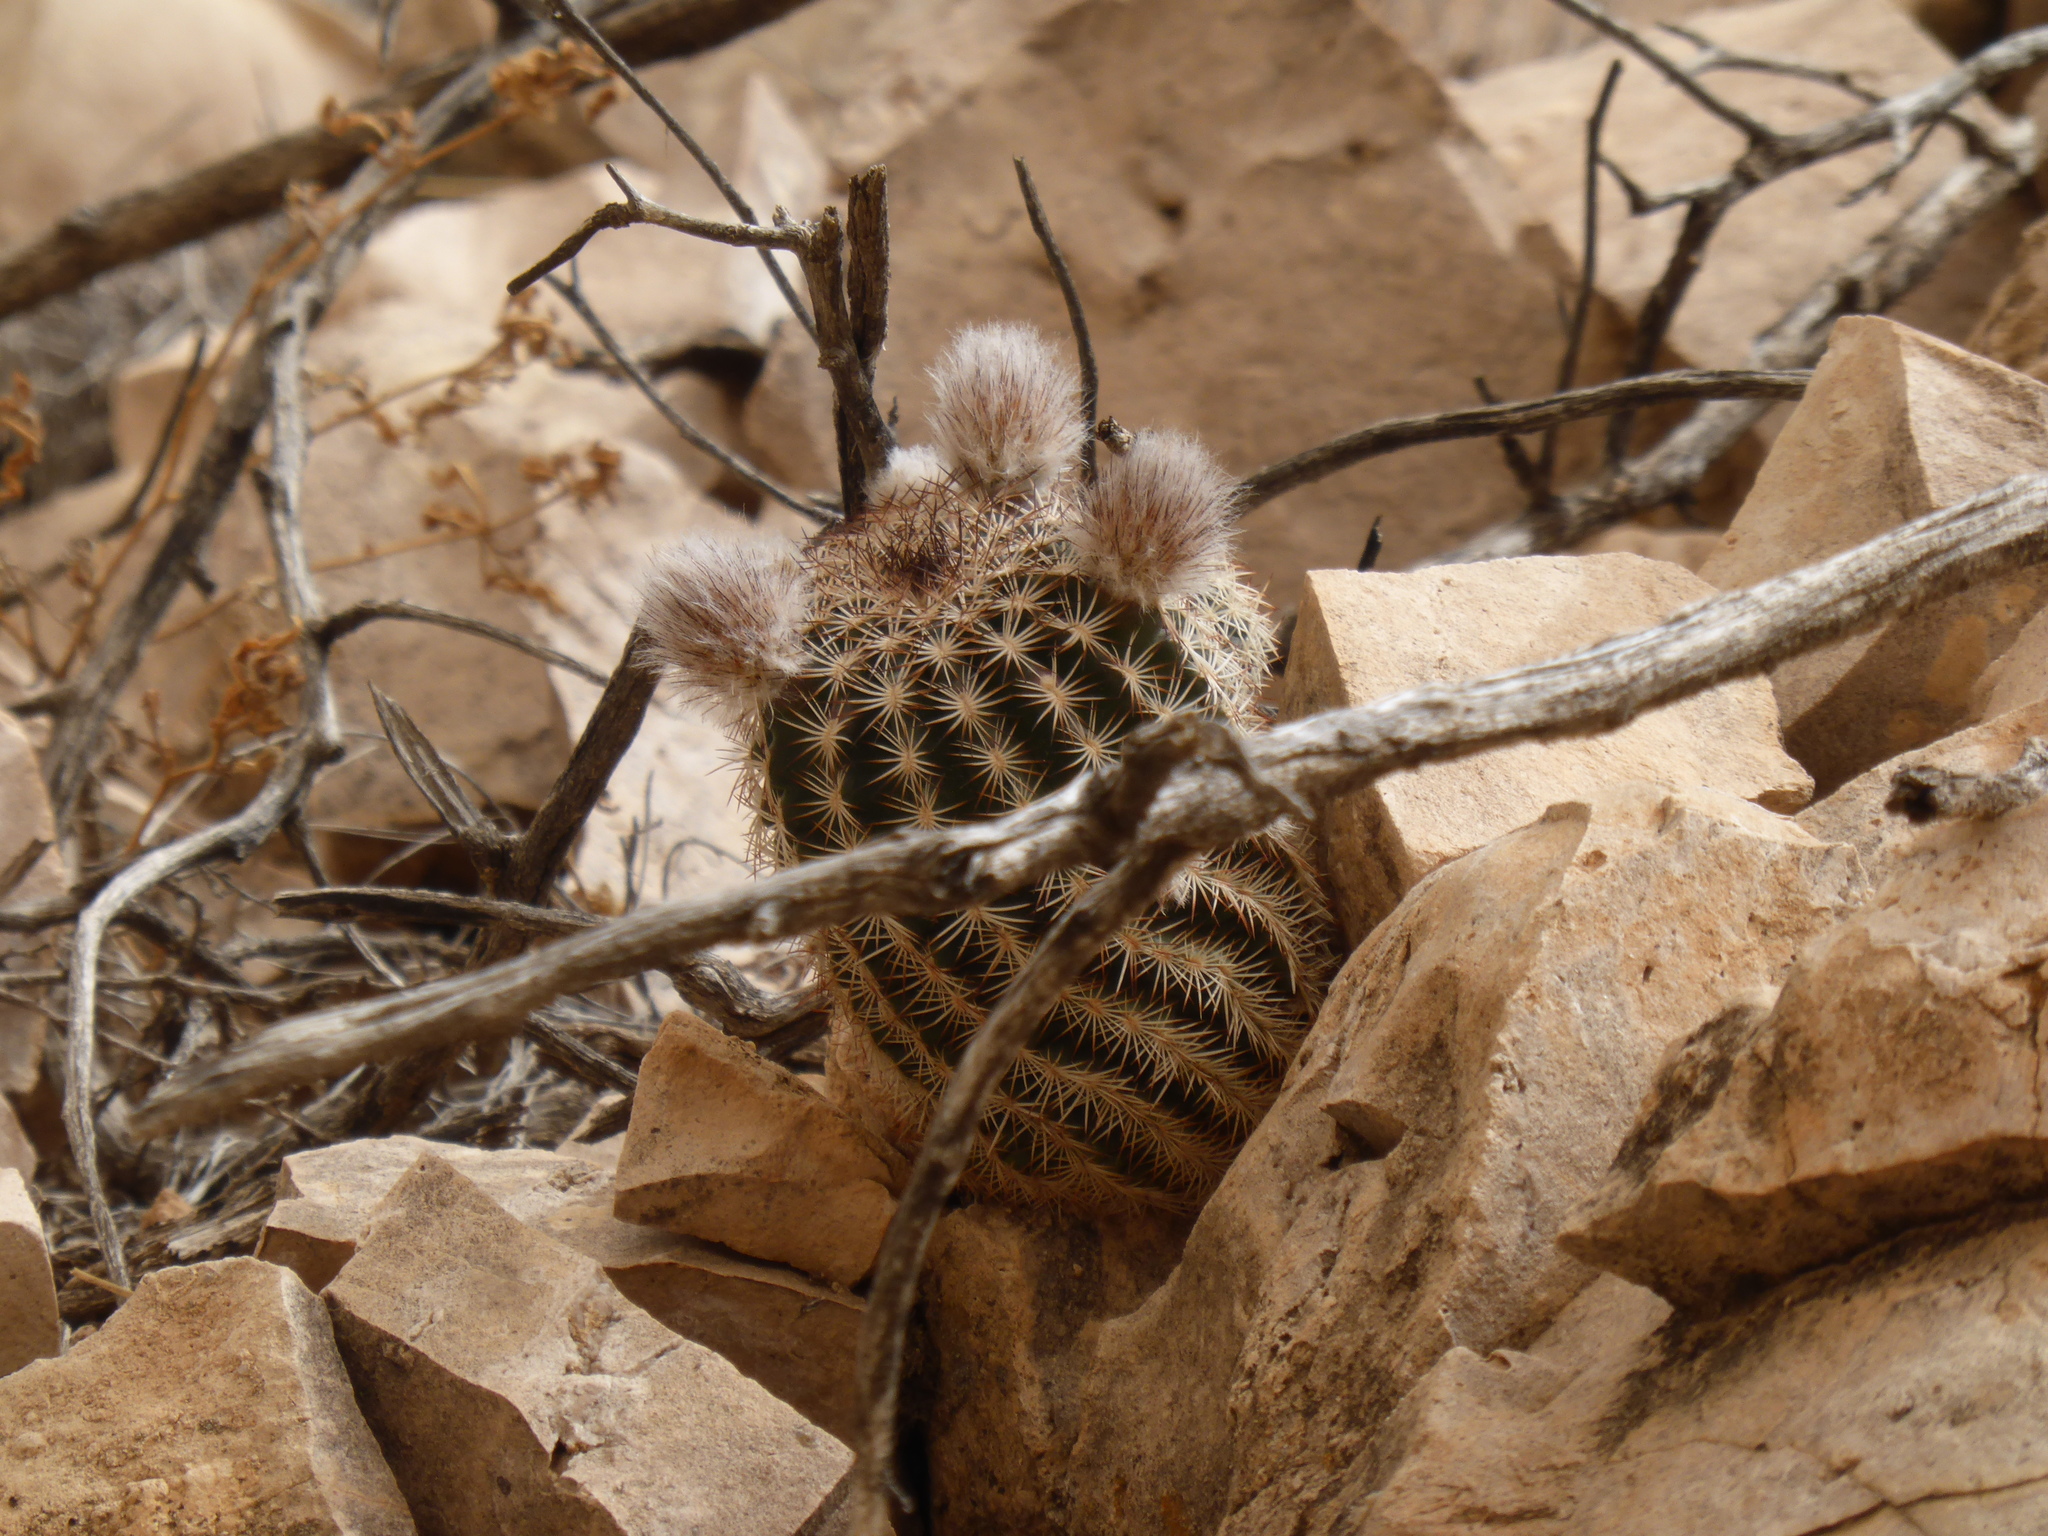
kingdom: Plantae
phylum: Tracheophyta
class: Magnoliopsida
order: Caryophyllales
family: Cactaceae
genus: Echinocereus
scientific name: Echinocereus reichenbachii
